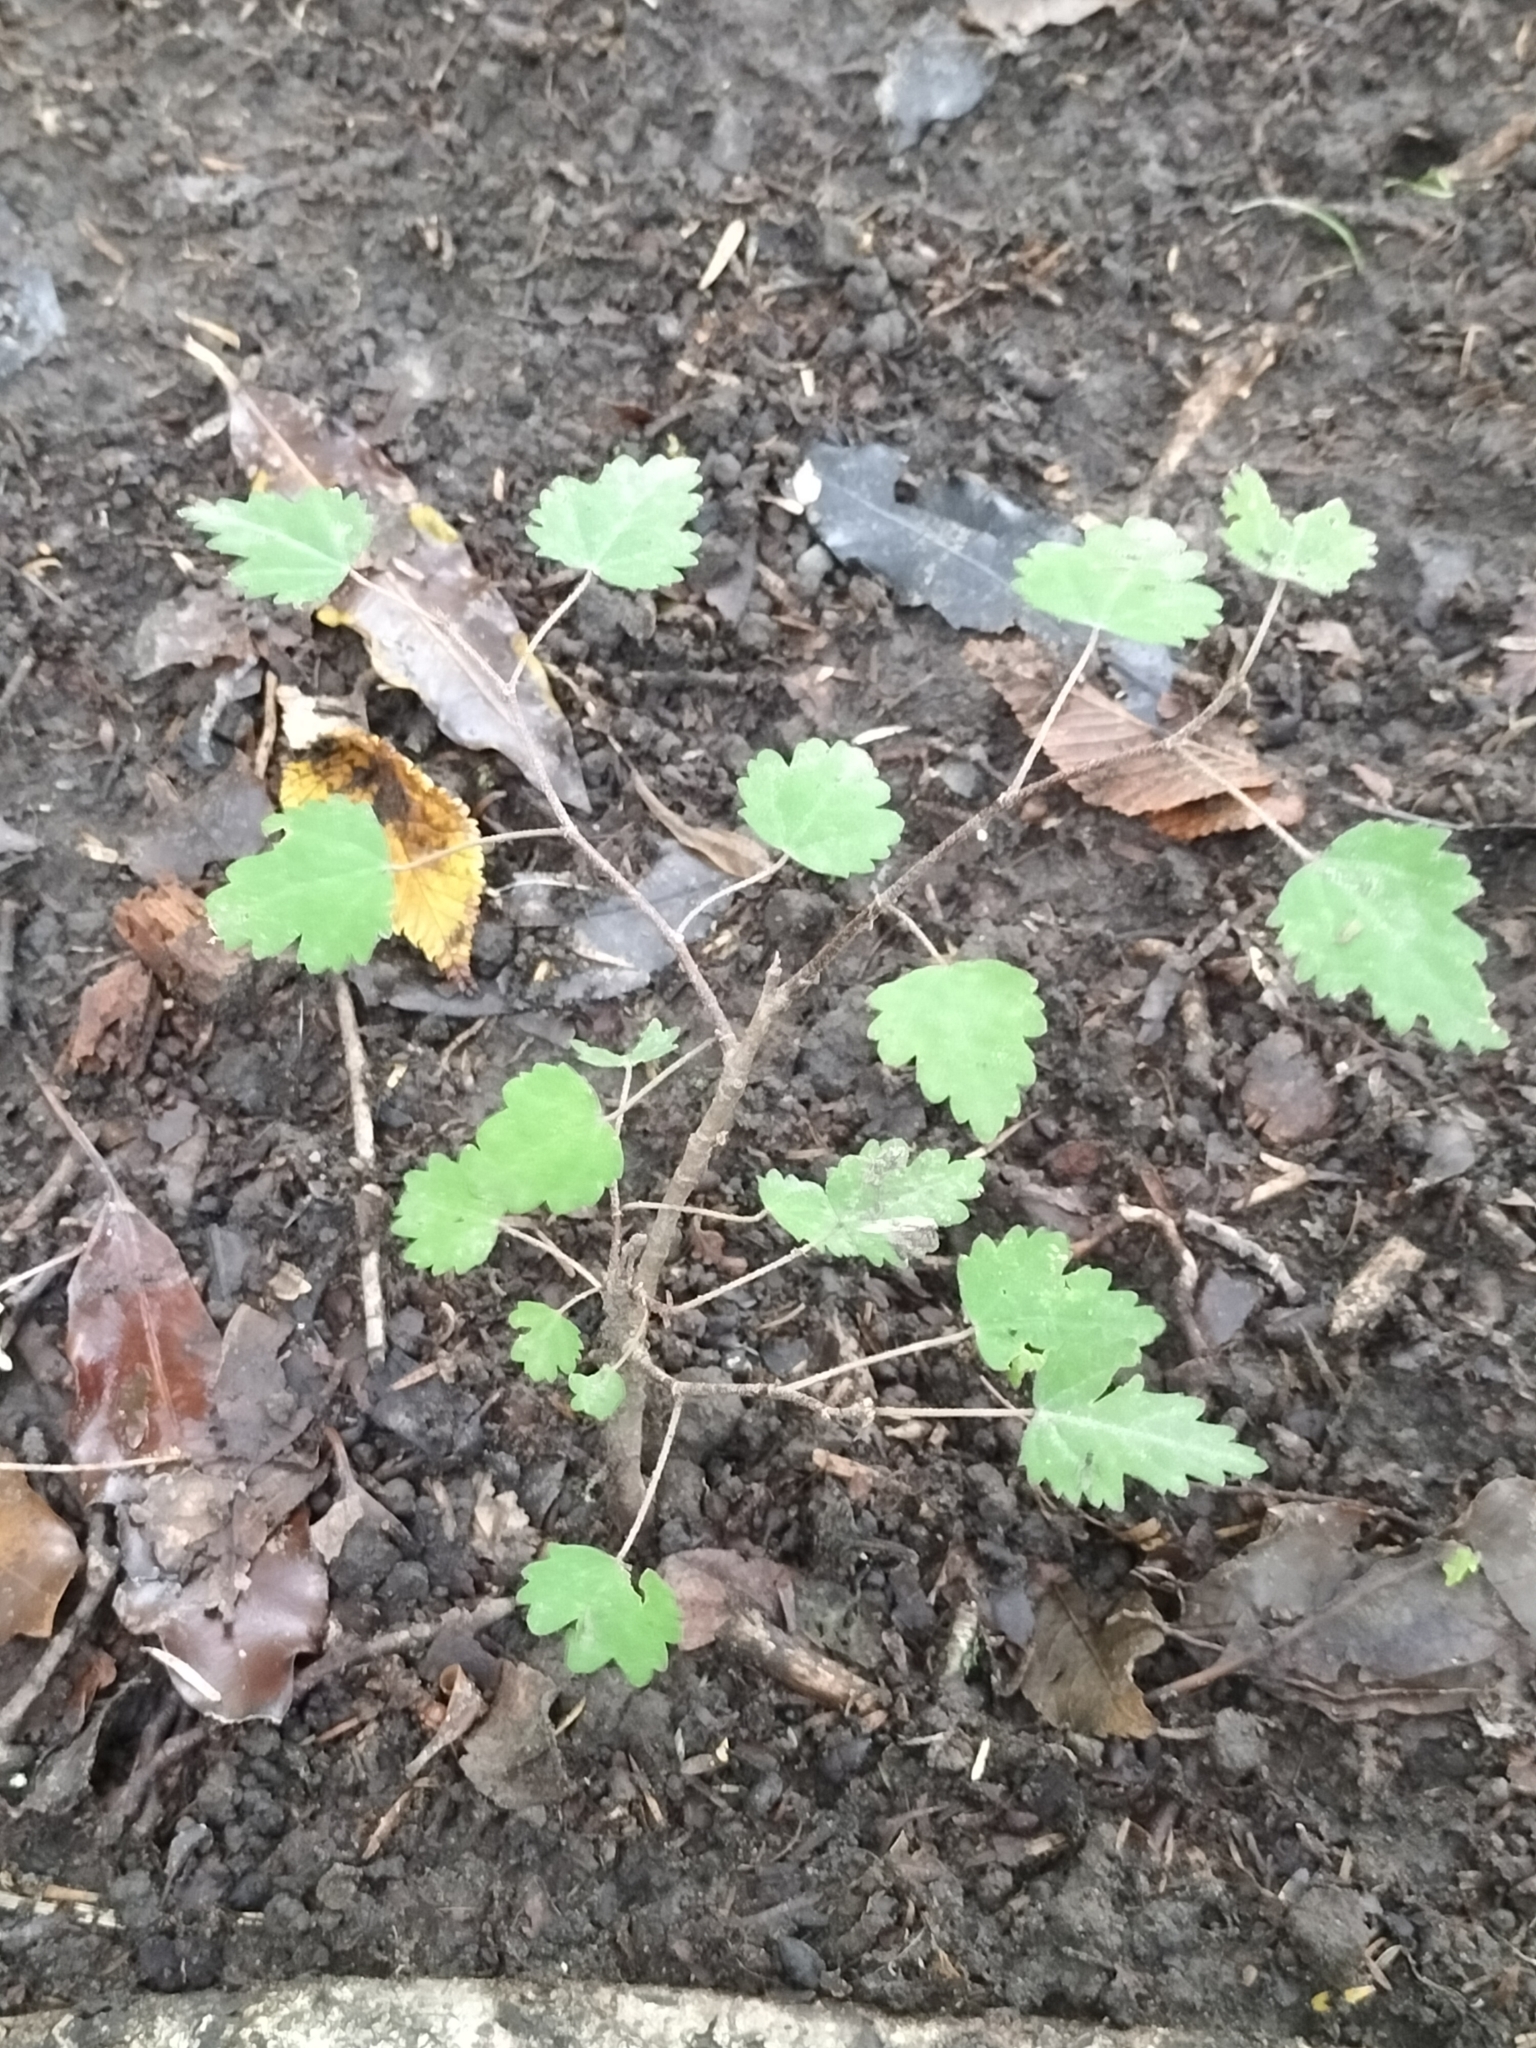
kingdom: Plantae
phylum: Tracheophyta
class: Magnoliopsida
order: Malvales
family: Malvaceae
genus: Plagianthus
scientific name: Plagianthus regius
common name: Manatu
